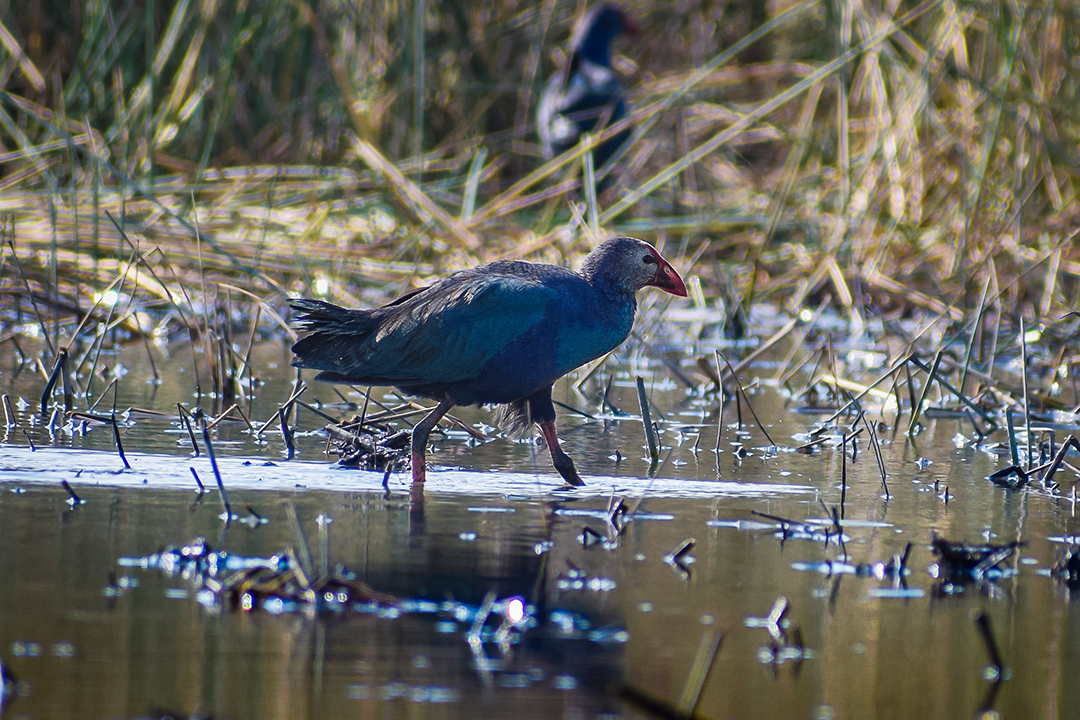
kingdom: Animalia
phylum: Chordata
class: Aves
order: Gruiformes
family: Rallidae
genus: Porphyrio
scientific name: Porphyrio porphyrio
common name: Purple swamphen
